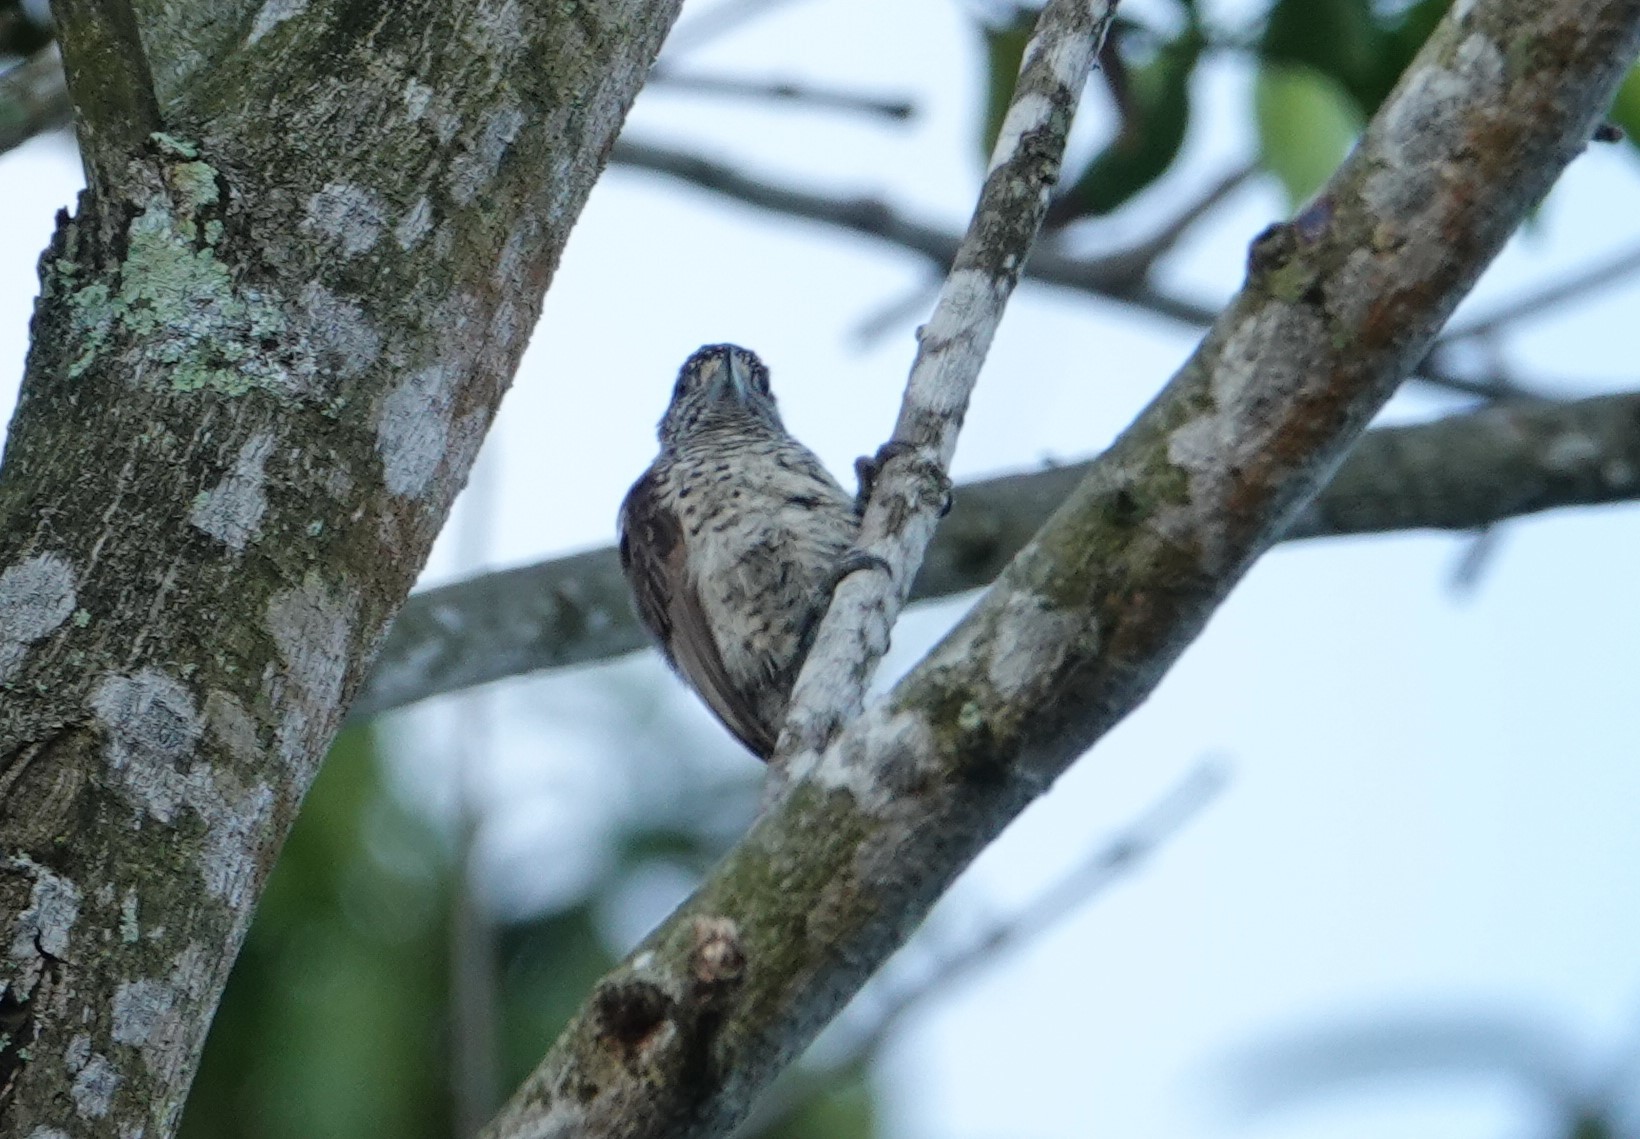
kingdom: Animalia
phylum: Chordata
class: Aves
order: Piciformes
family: Picidae
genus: Picumnus
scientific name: Picumnus spilogaster
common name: White-bellied piculet
